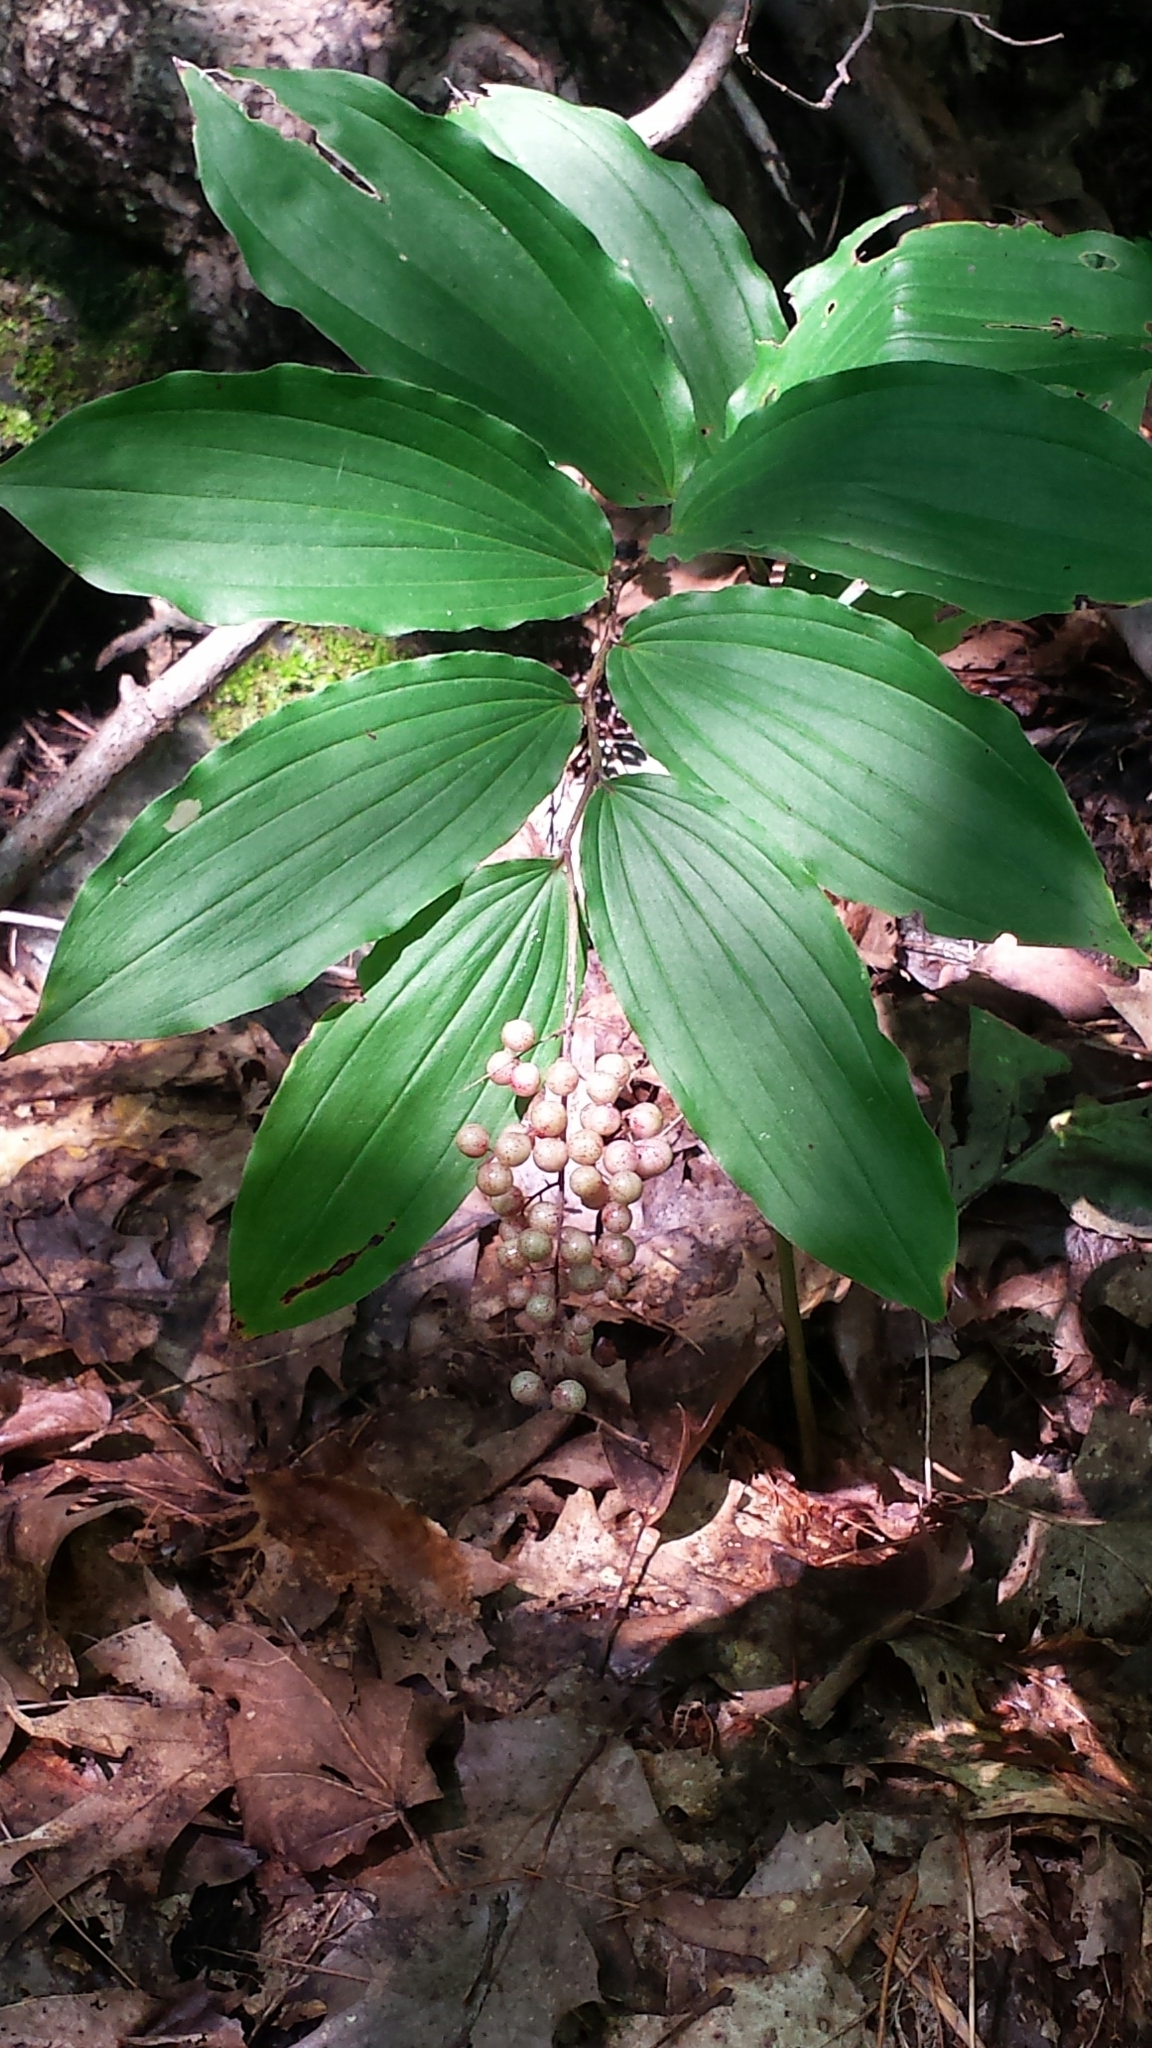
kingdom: Plantae
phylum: Tracheophyta
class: Liliopsida
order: Asparagales
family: Asparagaceae
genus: Maianthemum
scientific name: Maianthemum racemosum
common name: False spikenard
